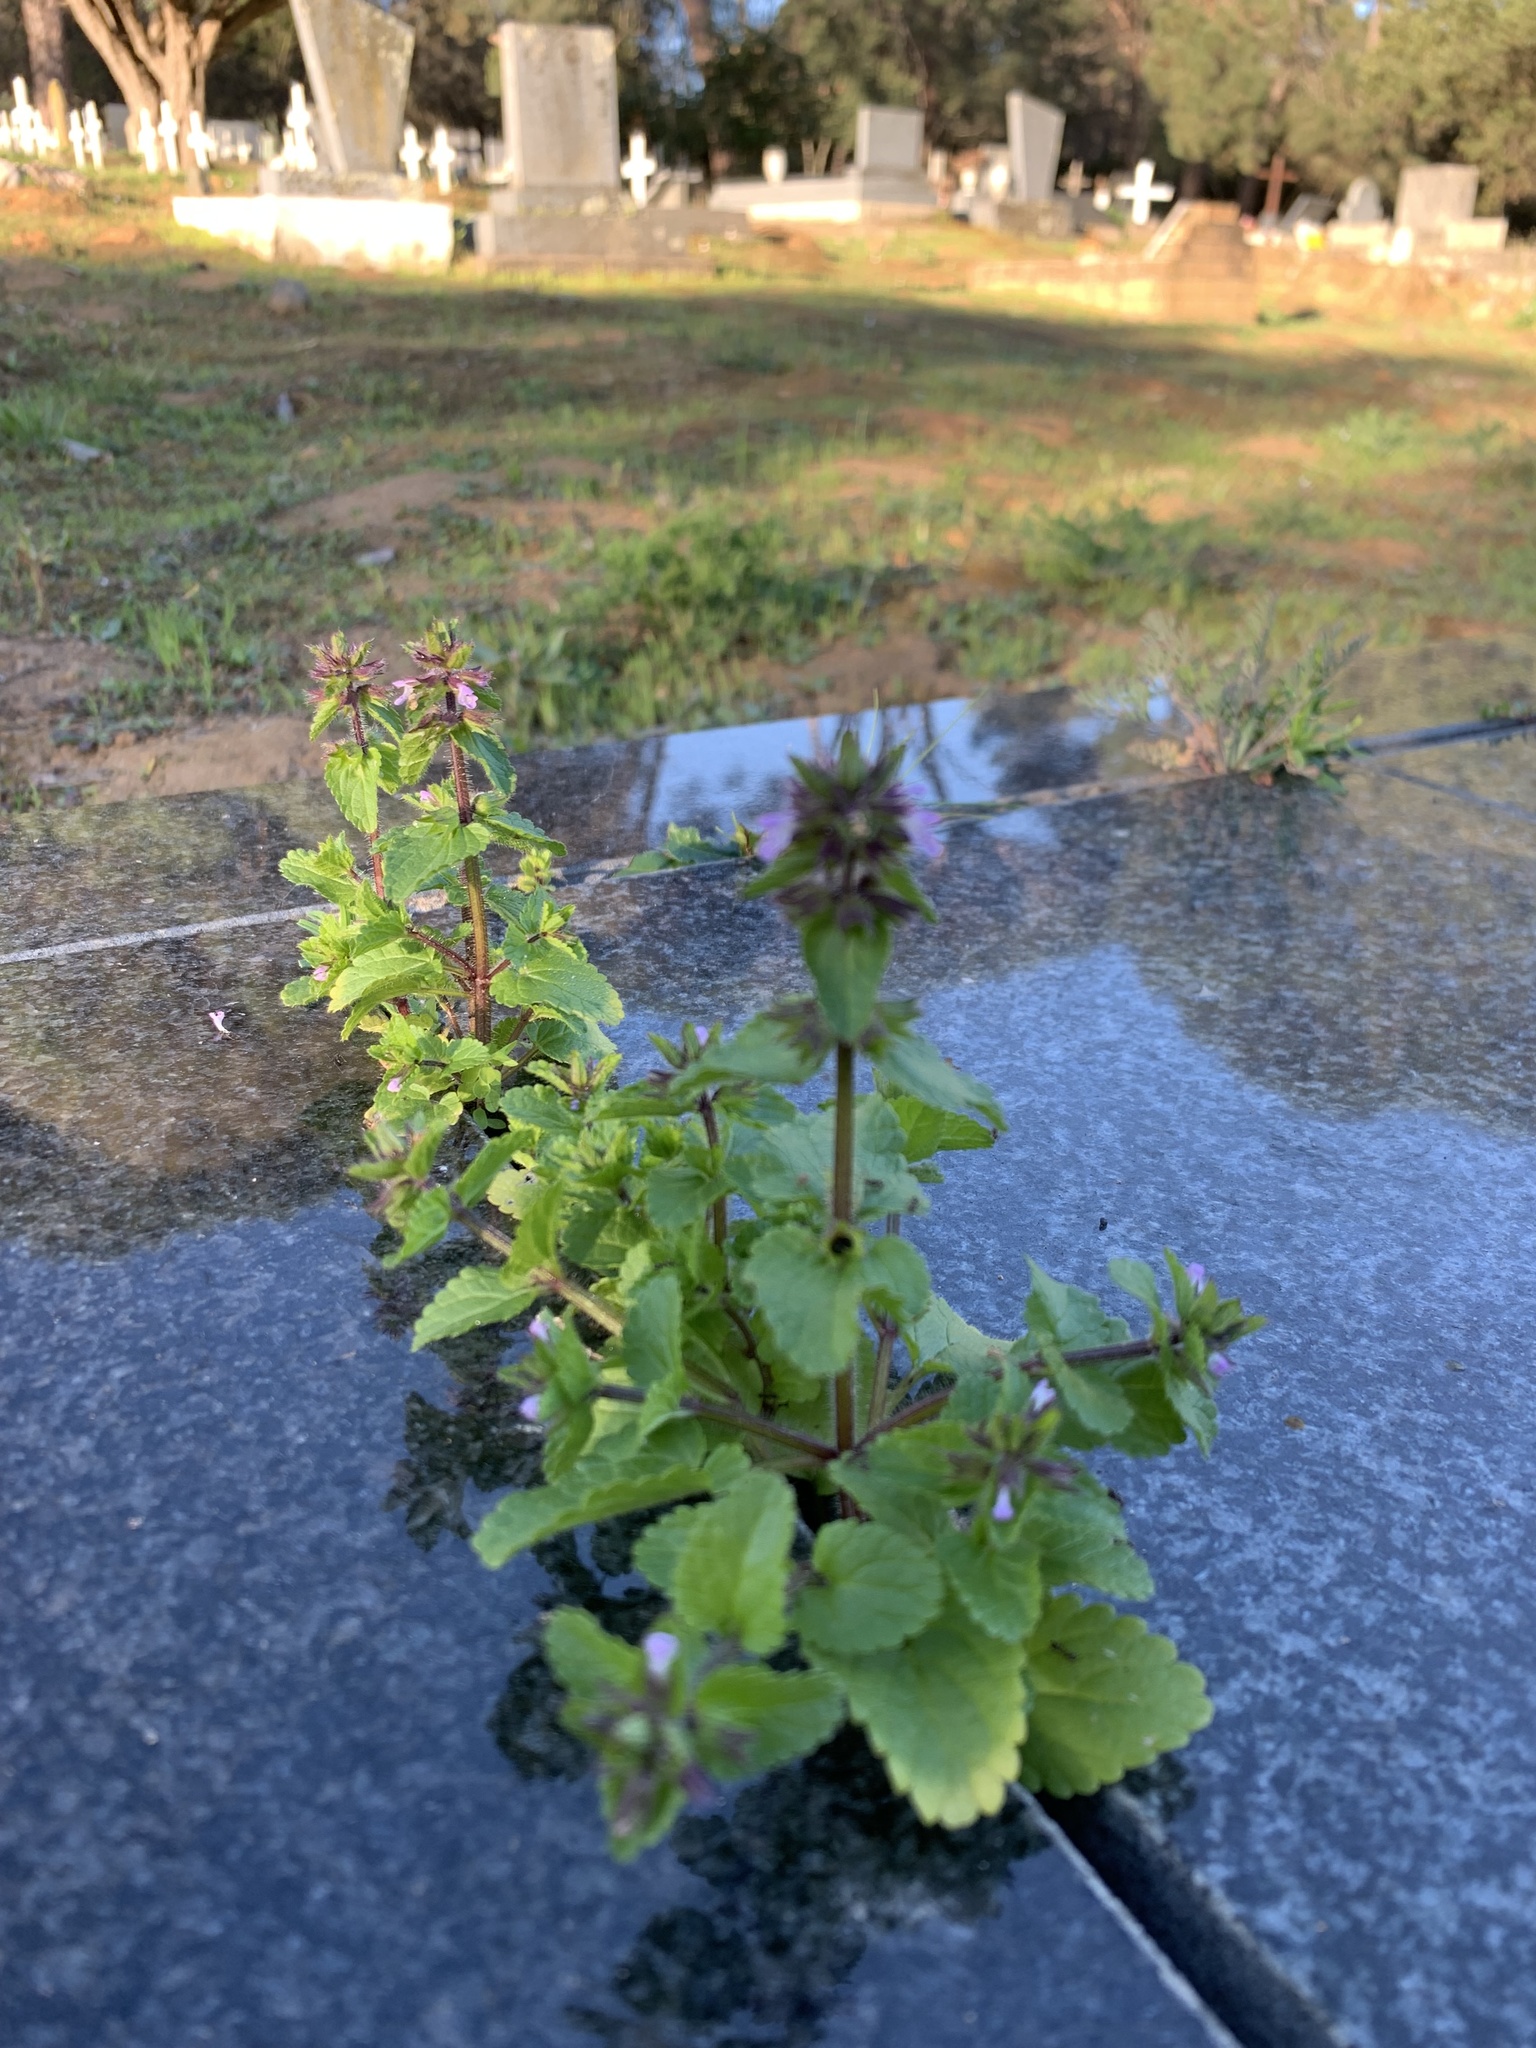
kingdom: Plantae
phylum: Tracheophyta
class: Magnoliopsida
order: Lamiales
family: Lamiaceae
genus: Stachys
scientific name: Stachys arvensis
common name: Field woundwort
